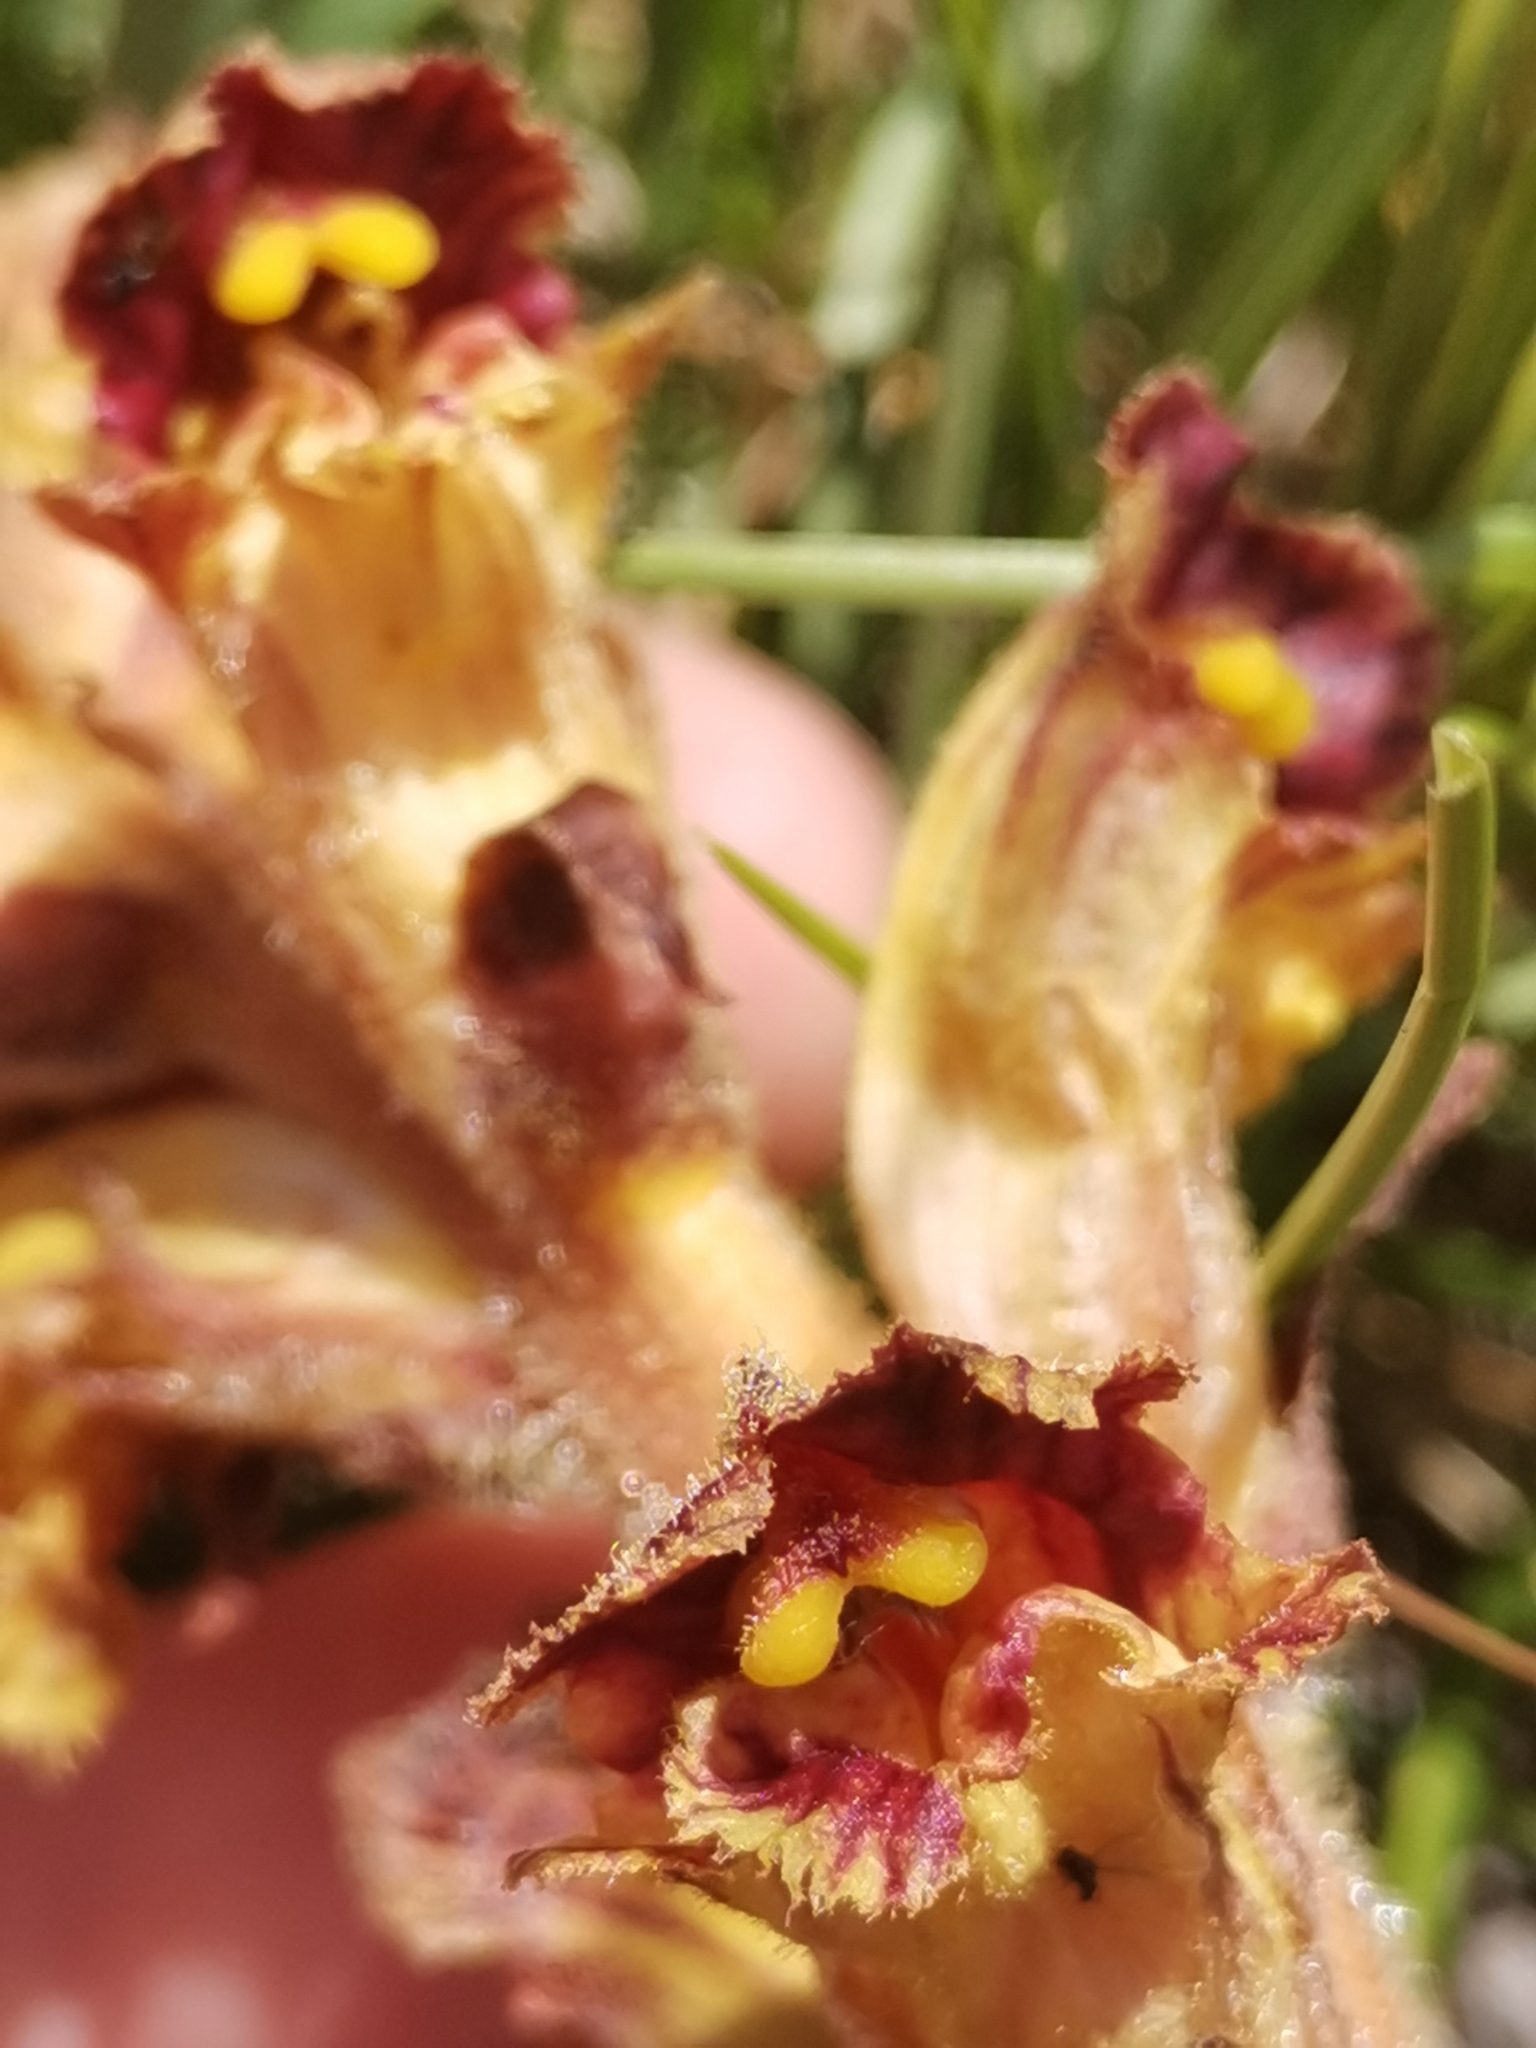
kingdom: Plantae
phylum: Tracheophyta
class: Magnoliopsida
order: Lamiales
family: Orobanchaceae
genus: Orobanche
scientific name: Orobanche gracilis
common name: Slender broomrape
